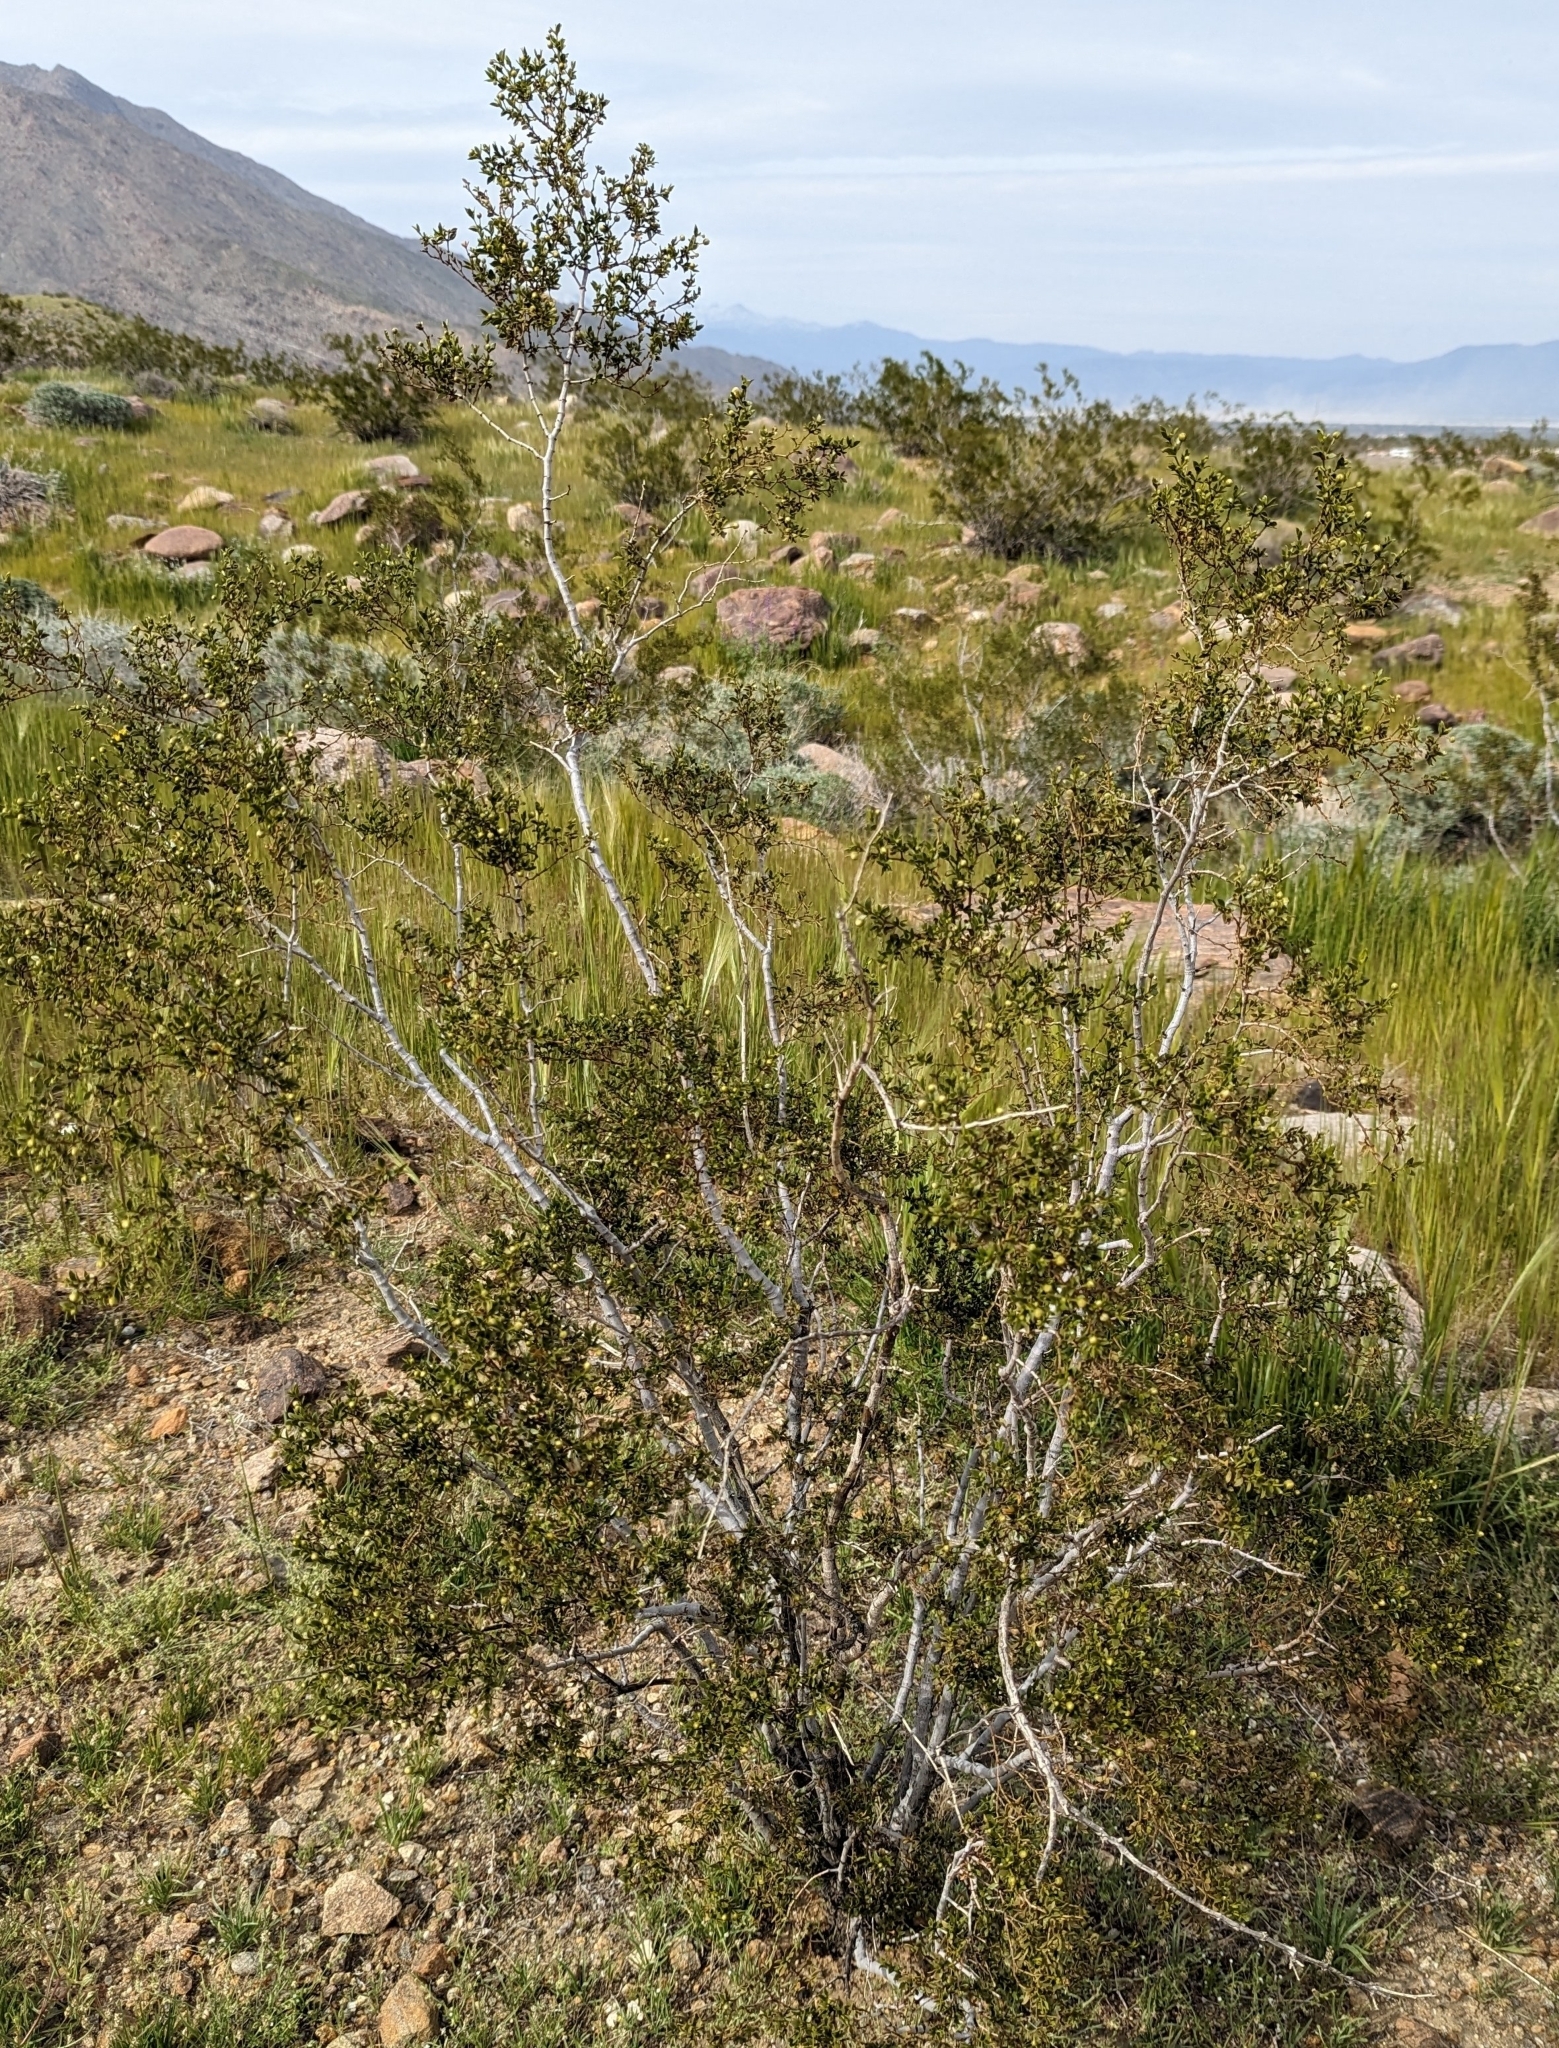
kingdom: Plantae
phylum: Tracheophyta
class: Magnoliopsida
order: Zygophyllales
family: Zygophyllaceae
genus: Larrea
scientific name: Larrea tridentata
